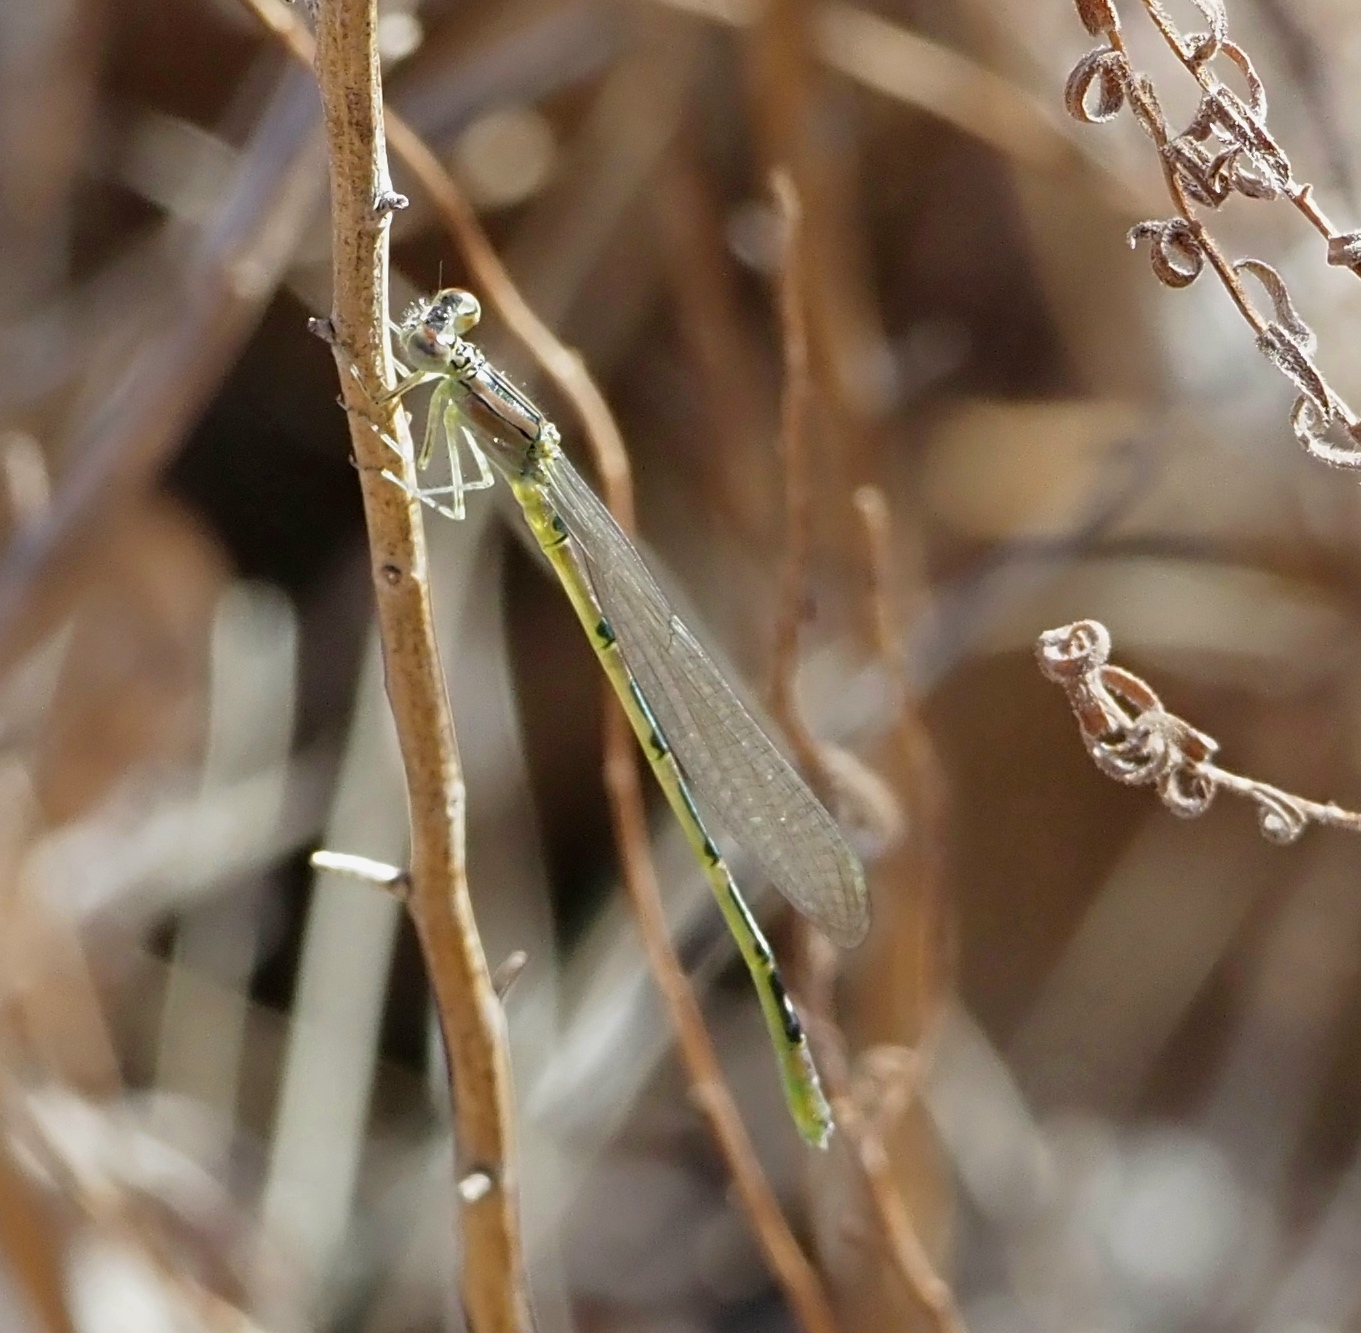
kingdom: Animalia
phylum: Arthropoda
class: Insecta
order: Odonata
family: Coenagrionidae
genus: Enallagma
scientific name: Enallagma praevarum
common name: Arroyo bluet
